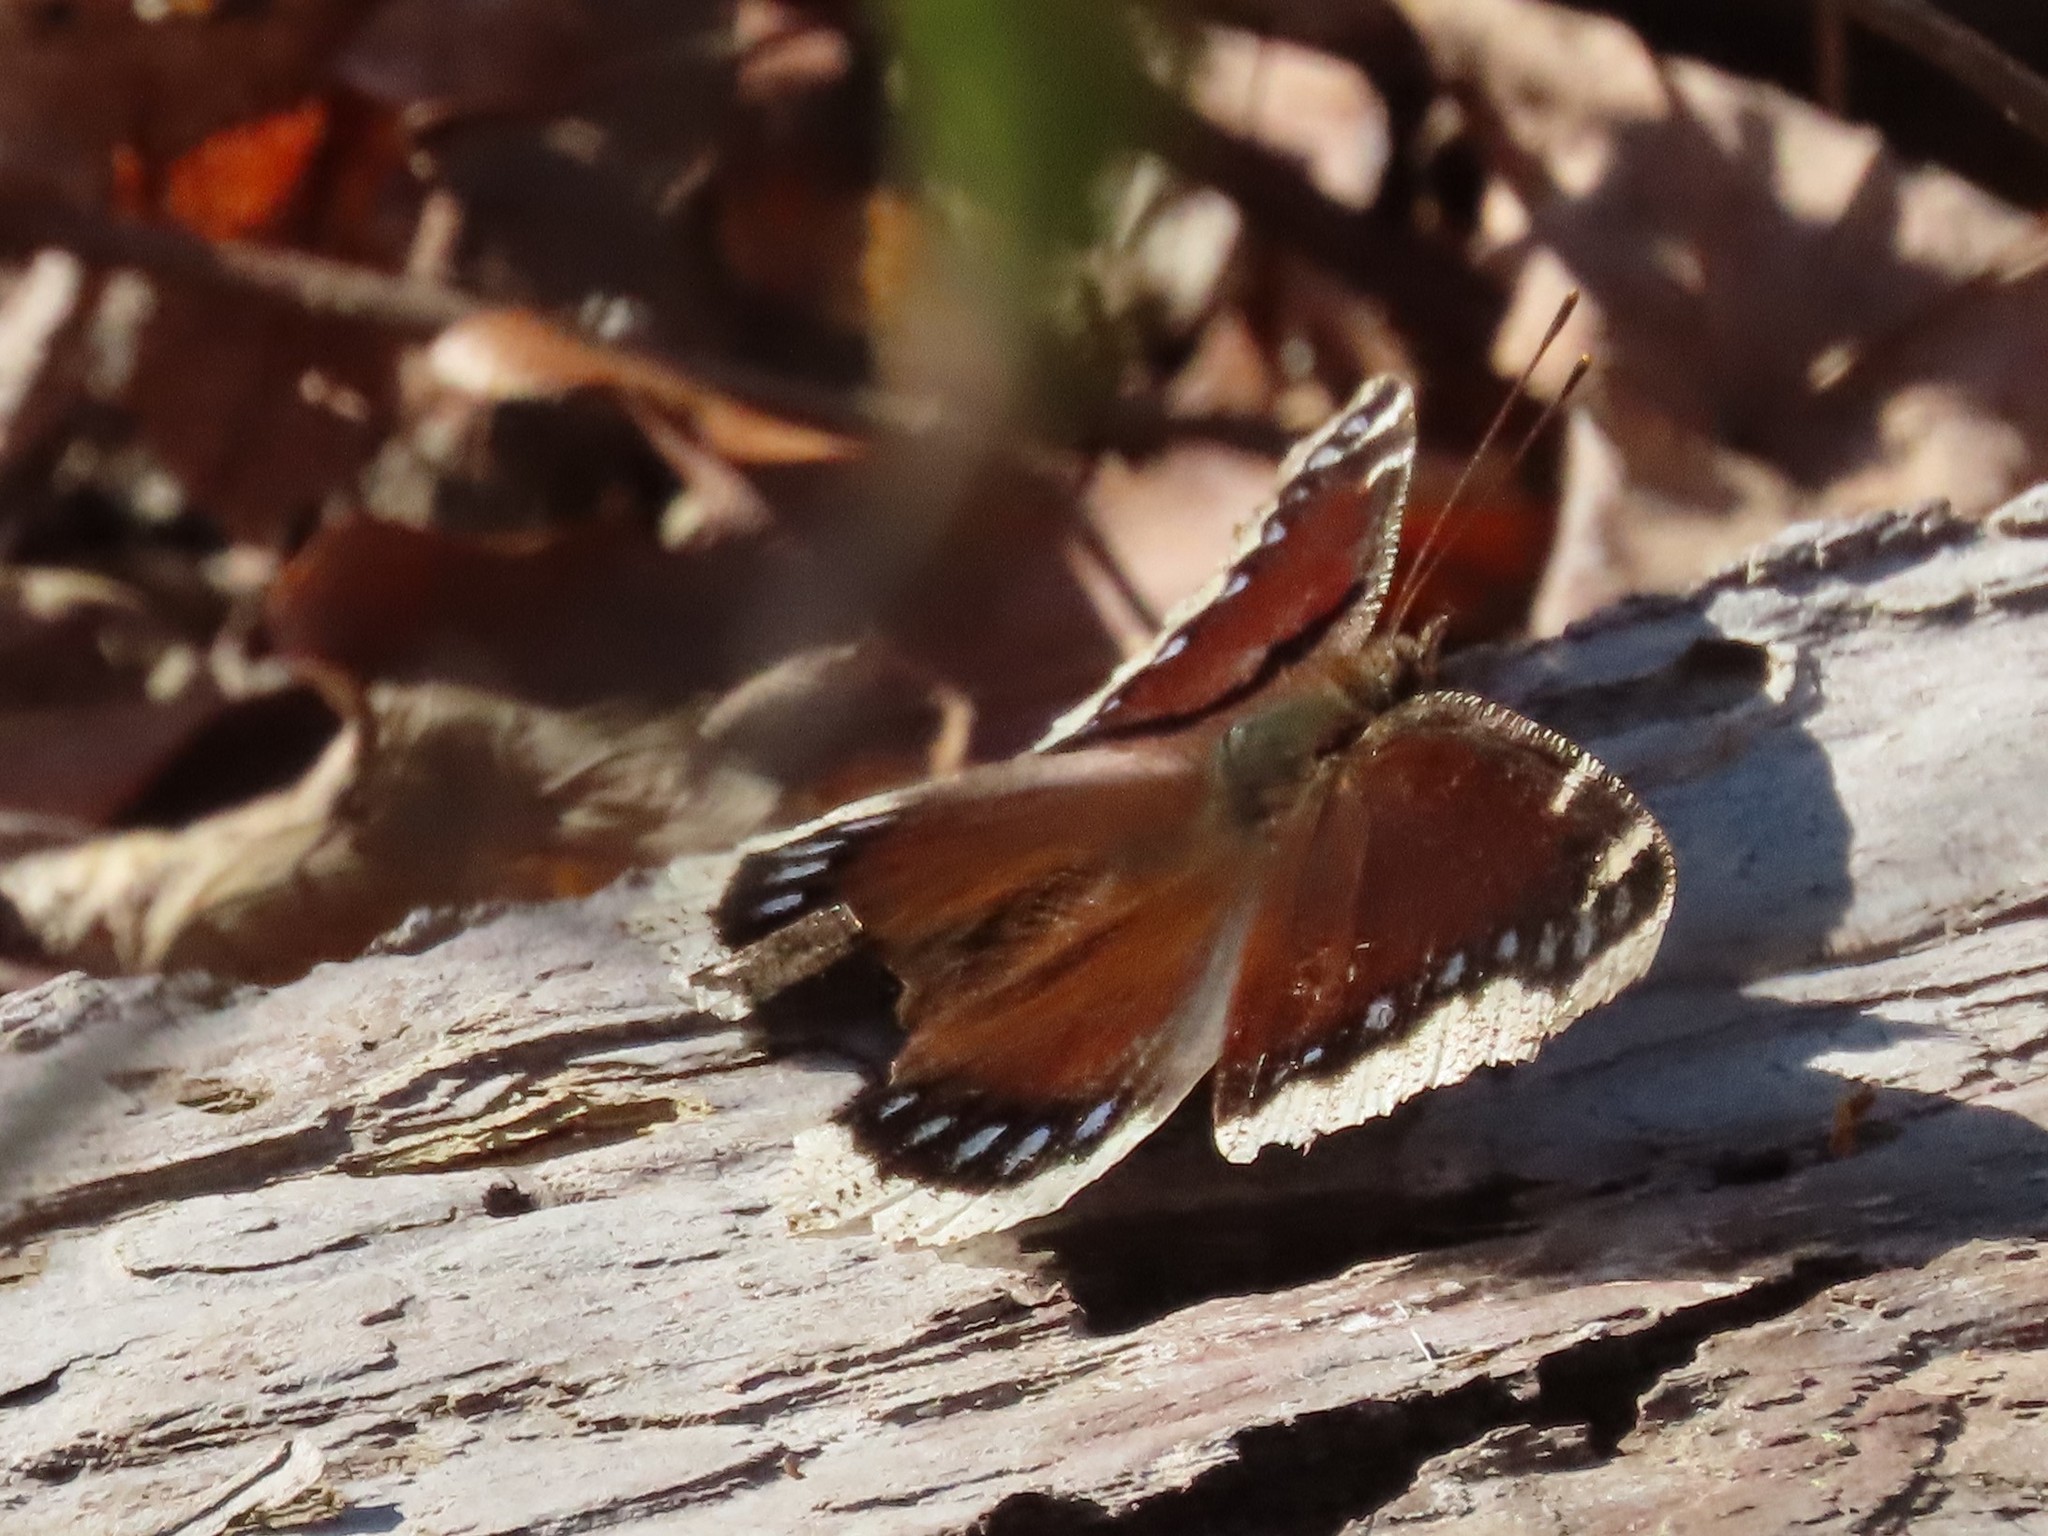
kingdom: Animalia
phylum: Arthropoda
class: Insecta
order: Lepidoptera
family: Nymphalidae
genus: Nymphalis
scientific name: Nymphalis antiopa
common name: Camberwell beauty
